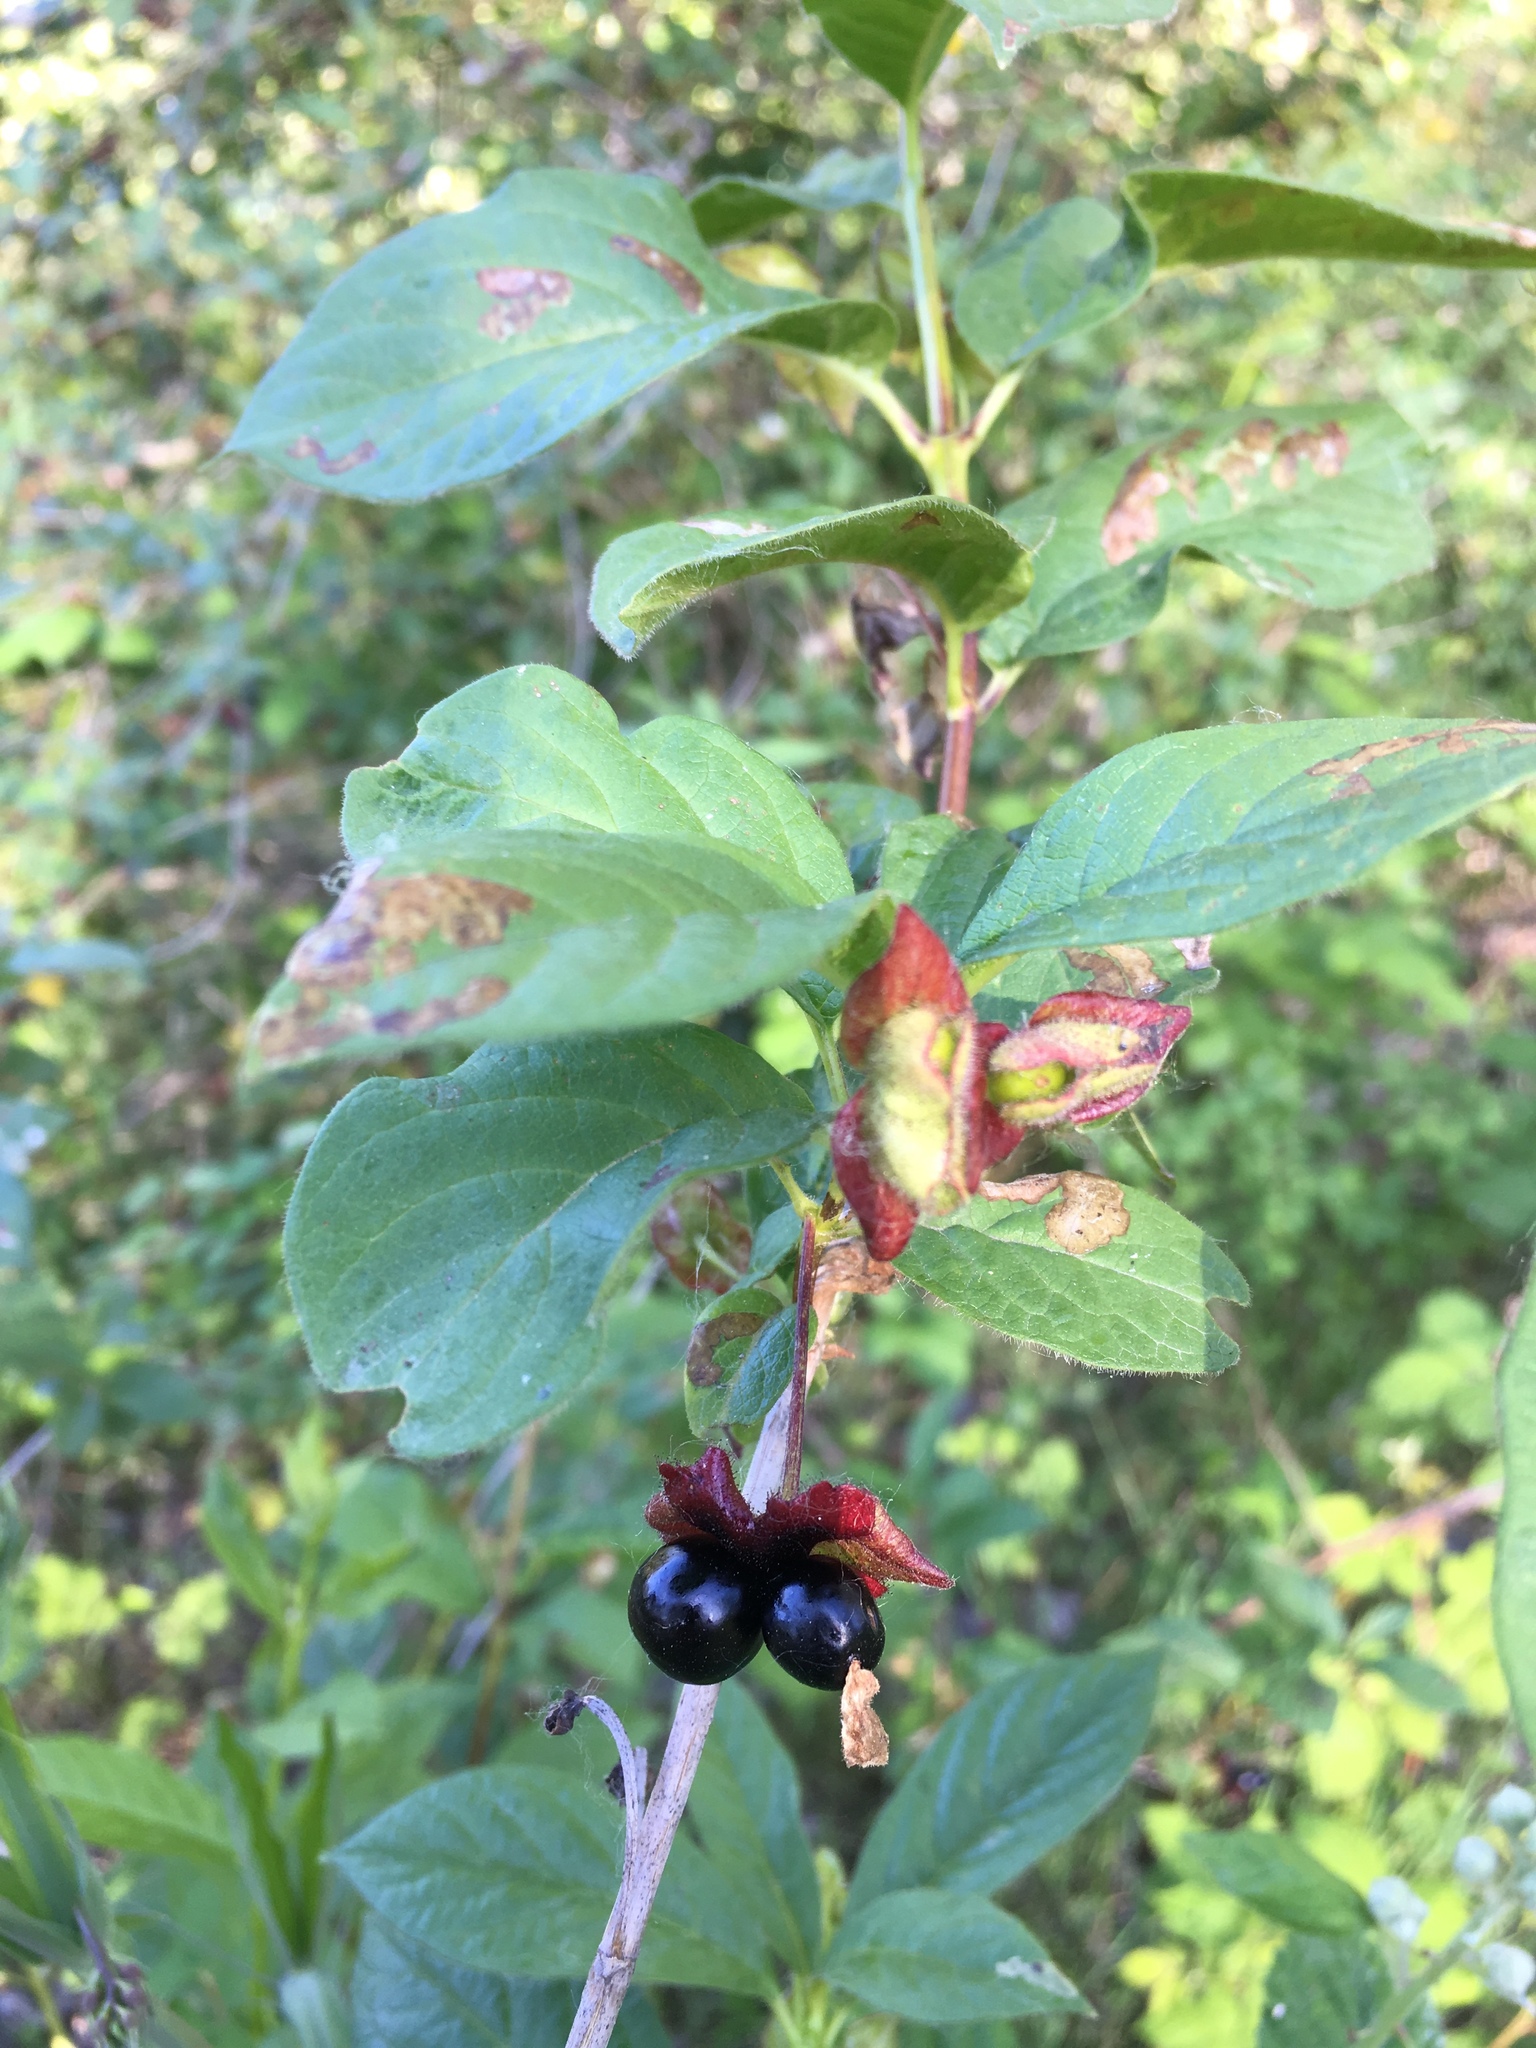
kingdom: Plantae
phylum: Tracheophyta
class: Magnoliopsida
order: Dipsacales
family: Caprifoliaceae
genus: Lonicera
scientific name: Lonicera involucrata
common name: Californian honeysuckle
